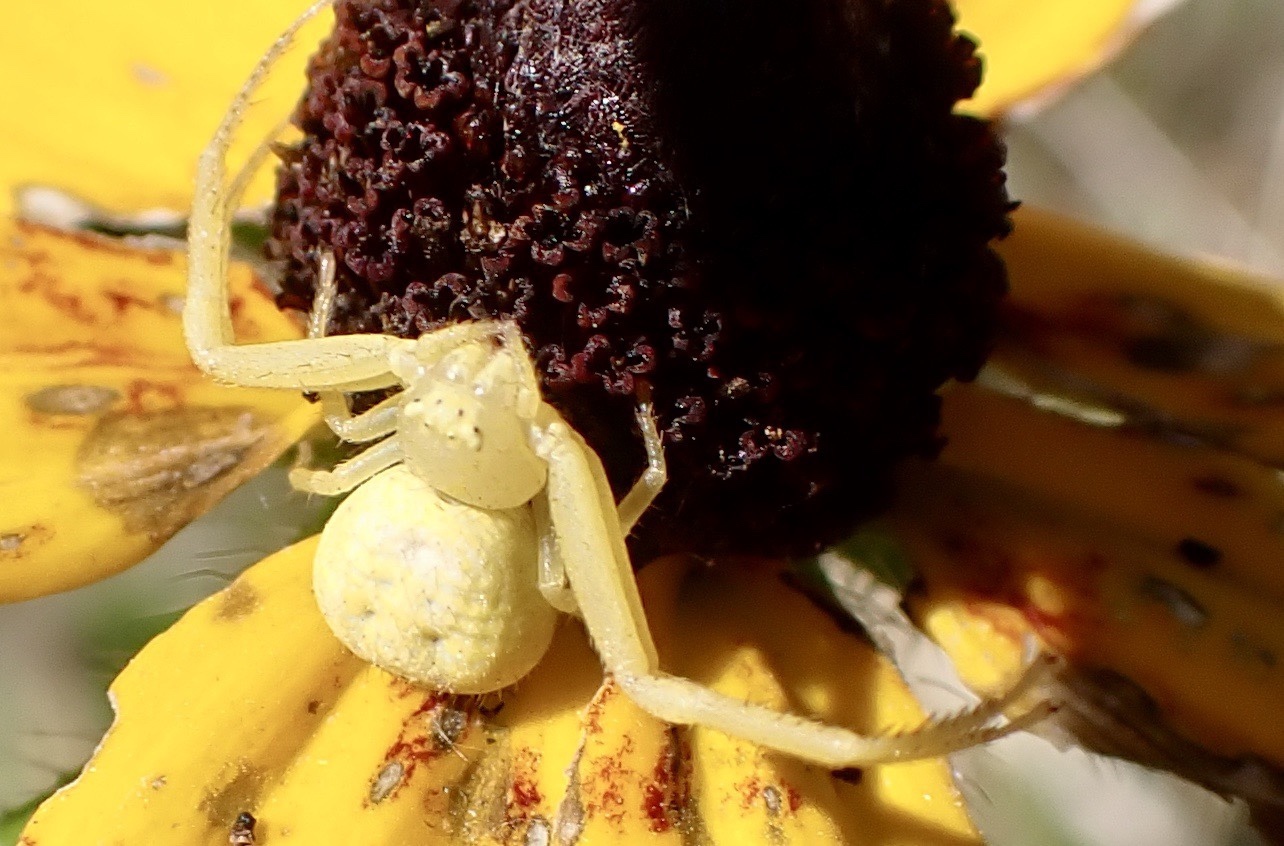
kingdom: Animalia
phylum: Arthropoda
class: Arachnida
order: Araneae
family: Thomisidae
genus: Misumessus
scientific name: Misumessus oblongus
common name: American green crab spider
